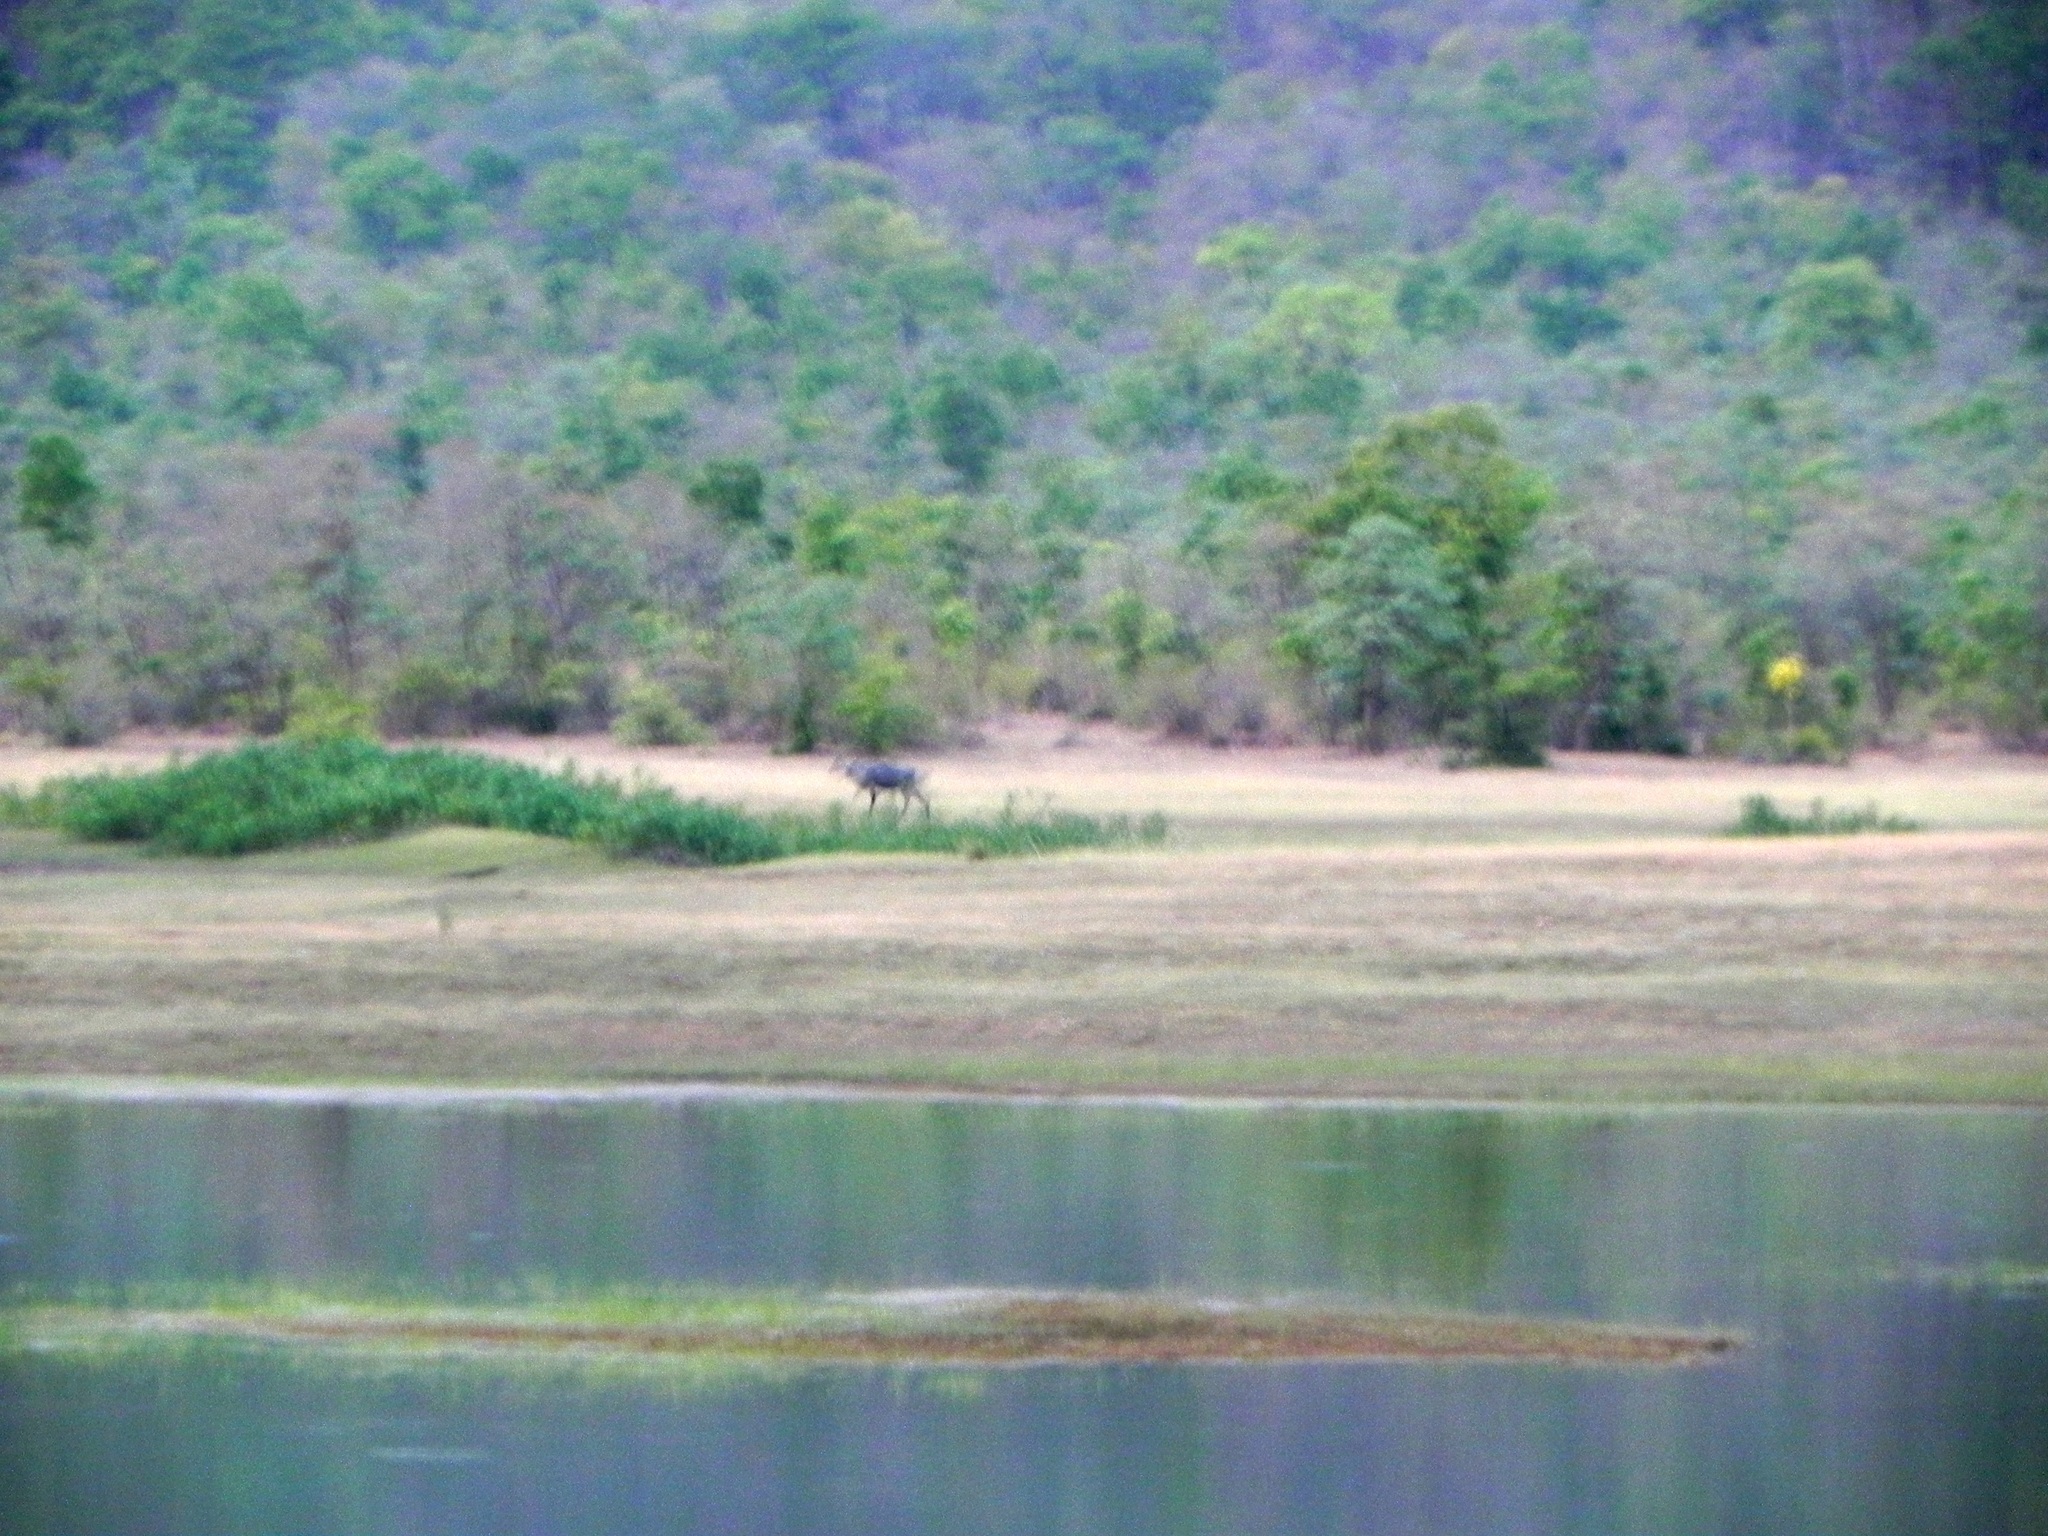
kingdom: Animalia
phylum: Chordata
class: Mammalia
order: Artiodactyla
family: Bovidae
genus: Boselaphus
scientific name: Boselaphus tragocamelus
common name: Nilgai
